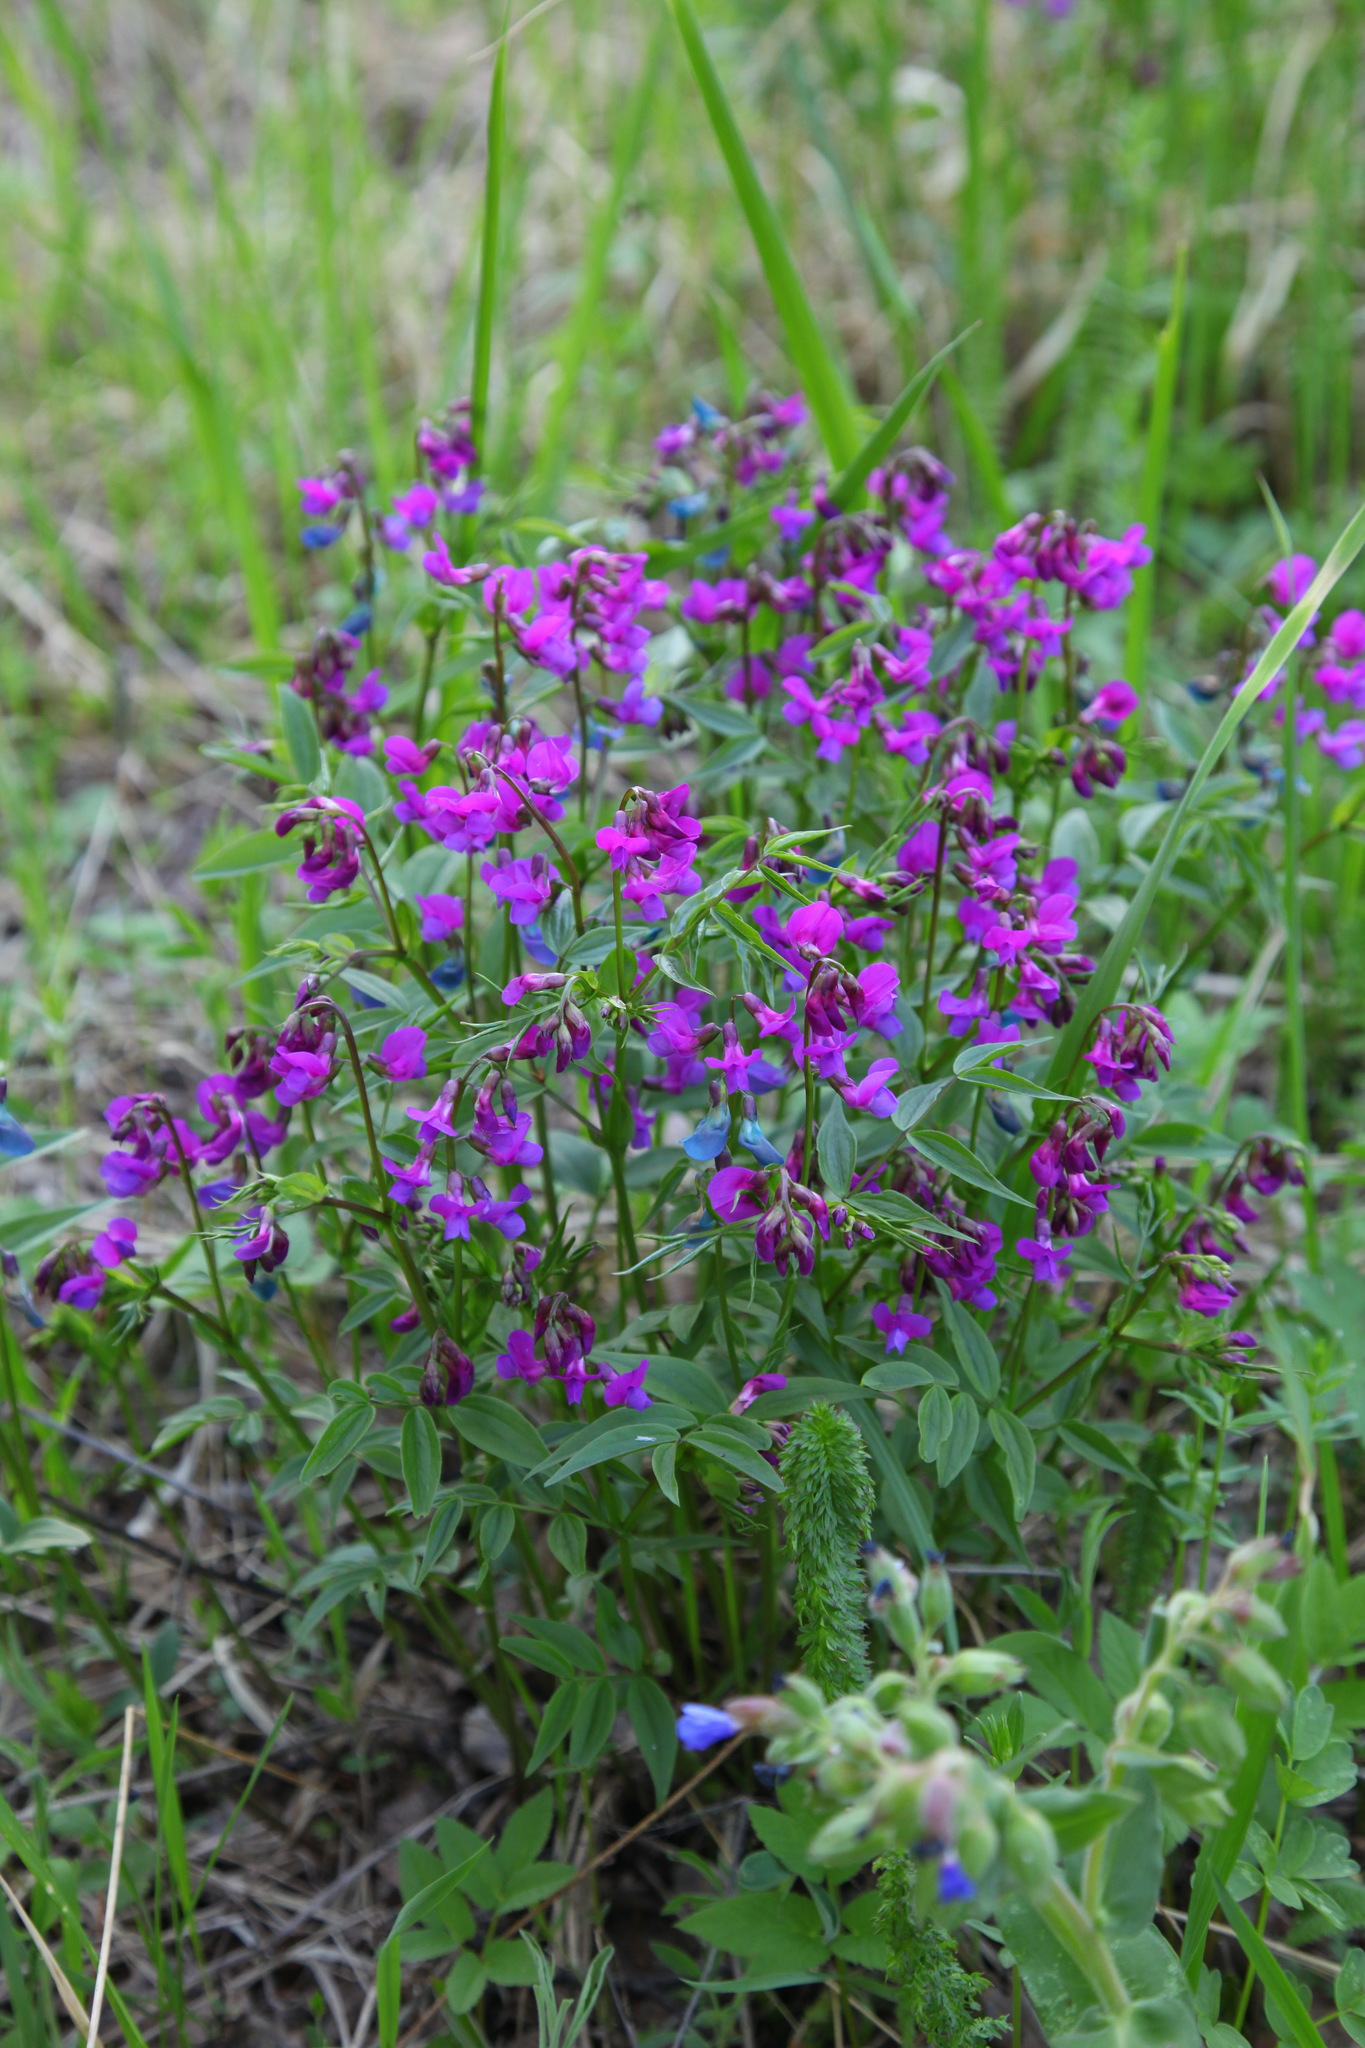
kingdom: Plantae
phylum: Tracheophyta
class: Magnoliopsida
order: Fabales
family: Fabaceae
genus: Lathyrus
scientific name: Lathyrus vernus
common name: Spring pea
